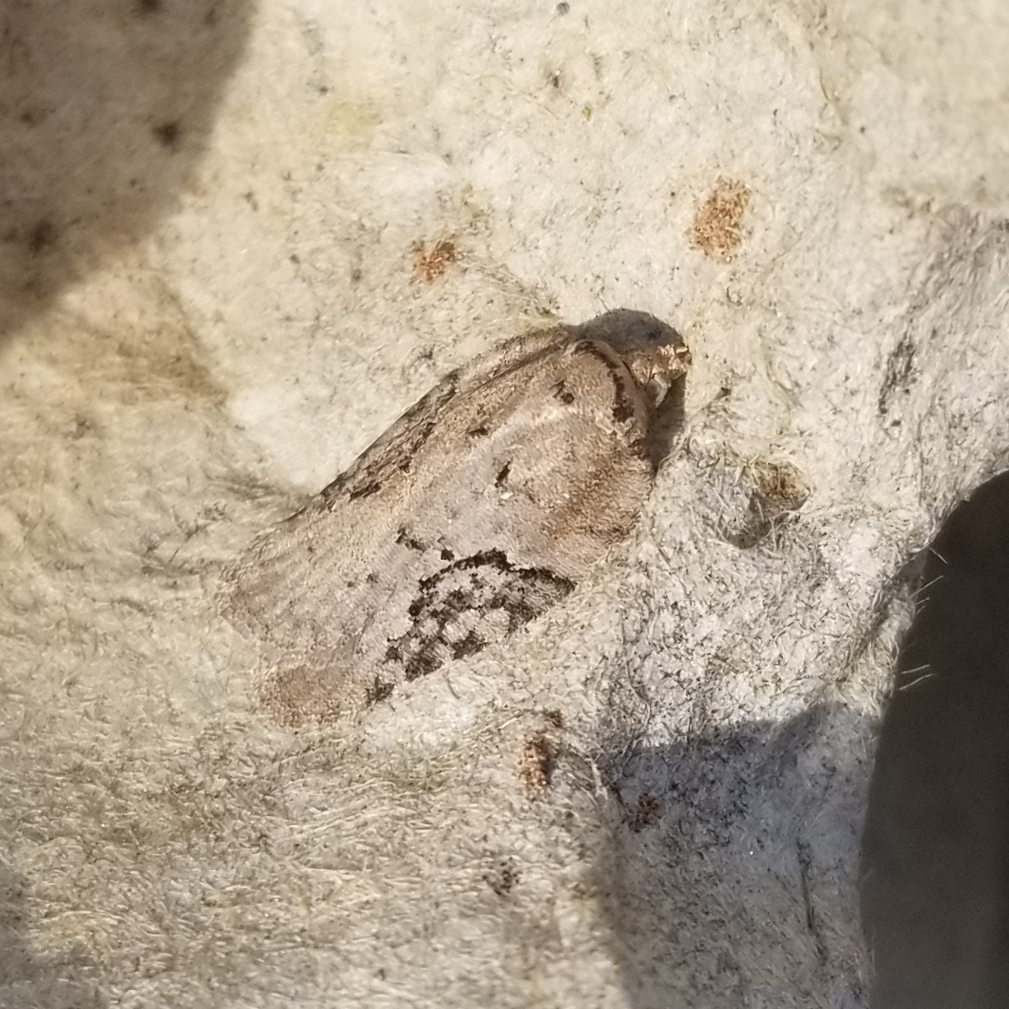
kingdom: Animalia
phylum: Arthropoda
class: Insecta
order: Lepidoptera
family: Tortricidae
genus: Acleris
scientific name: Acleris chalybeana
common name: Lesser maple leafroller
